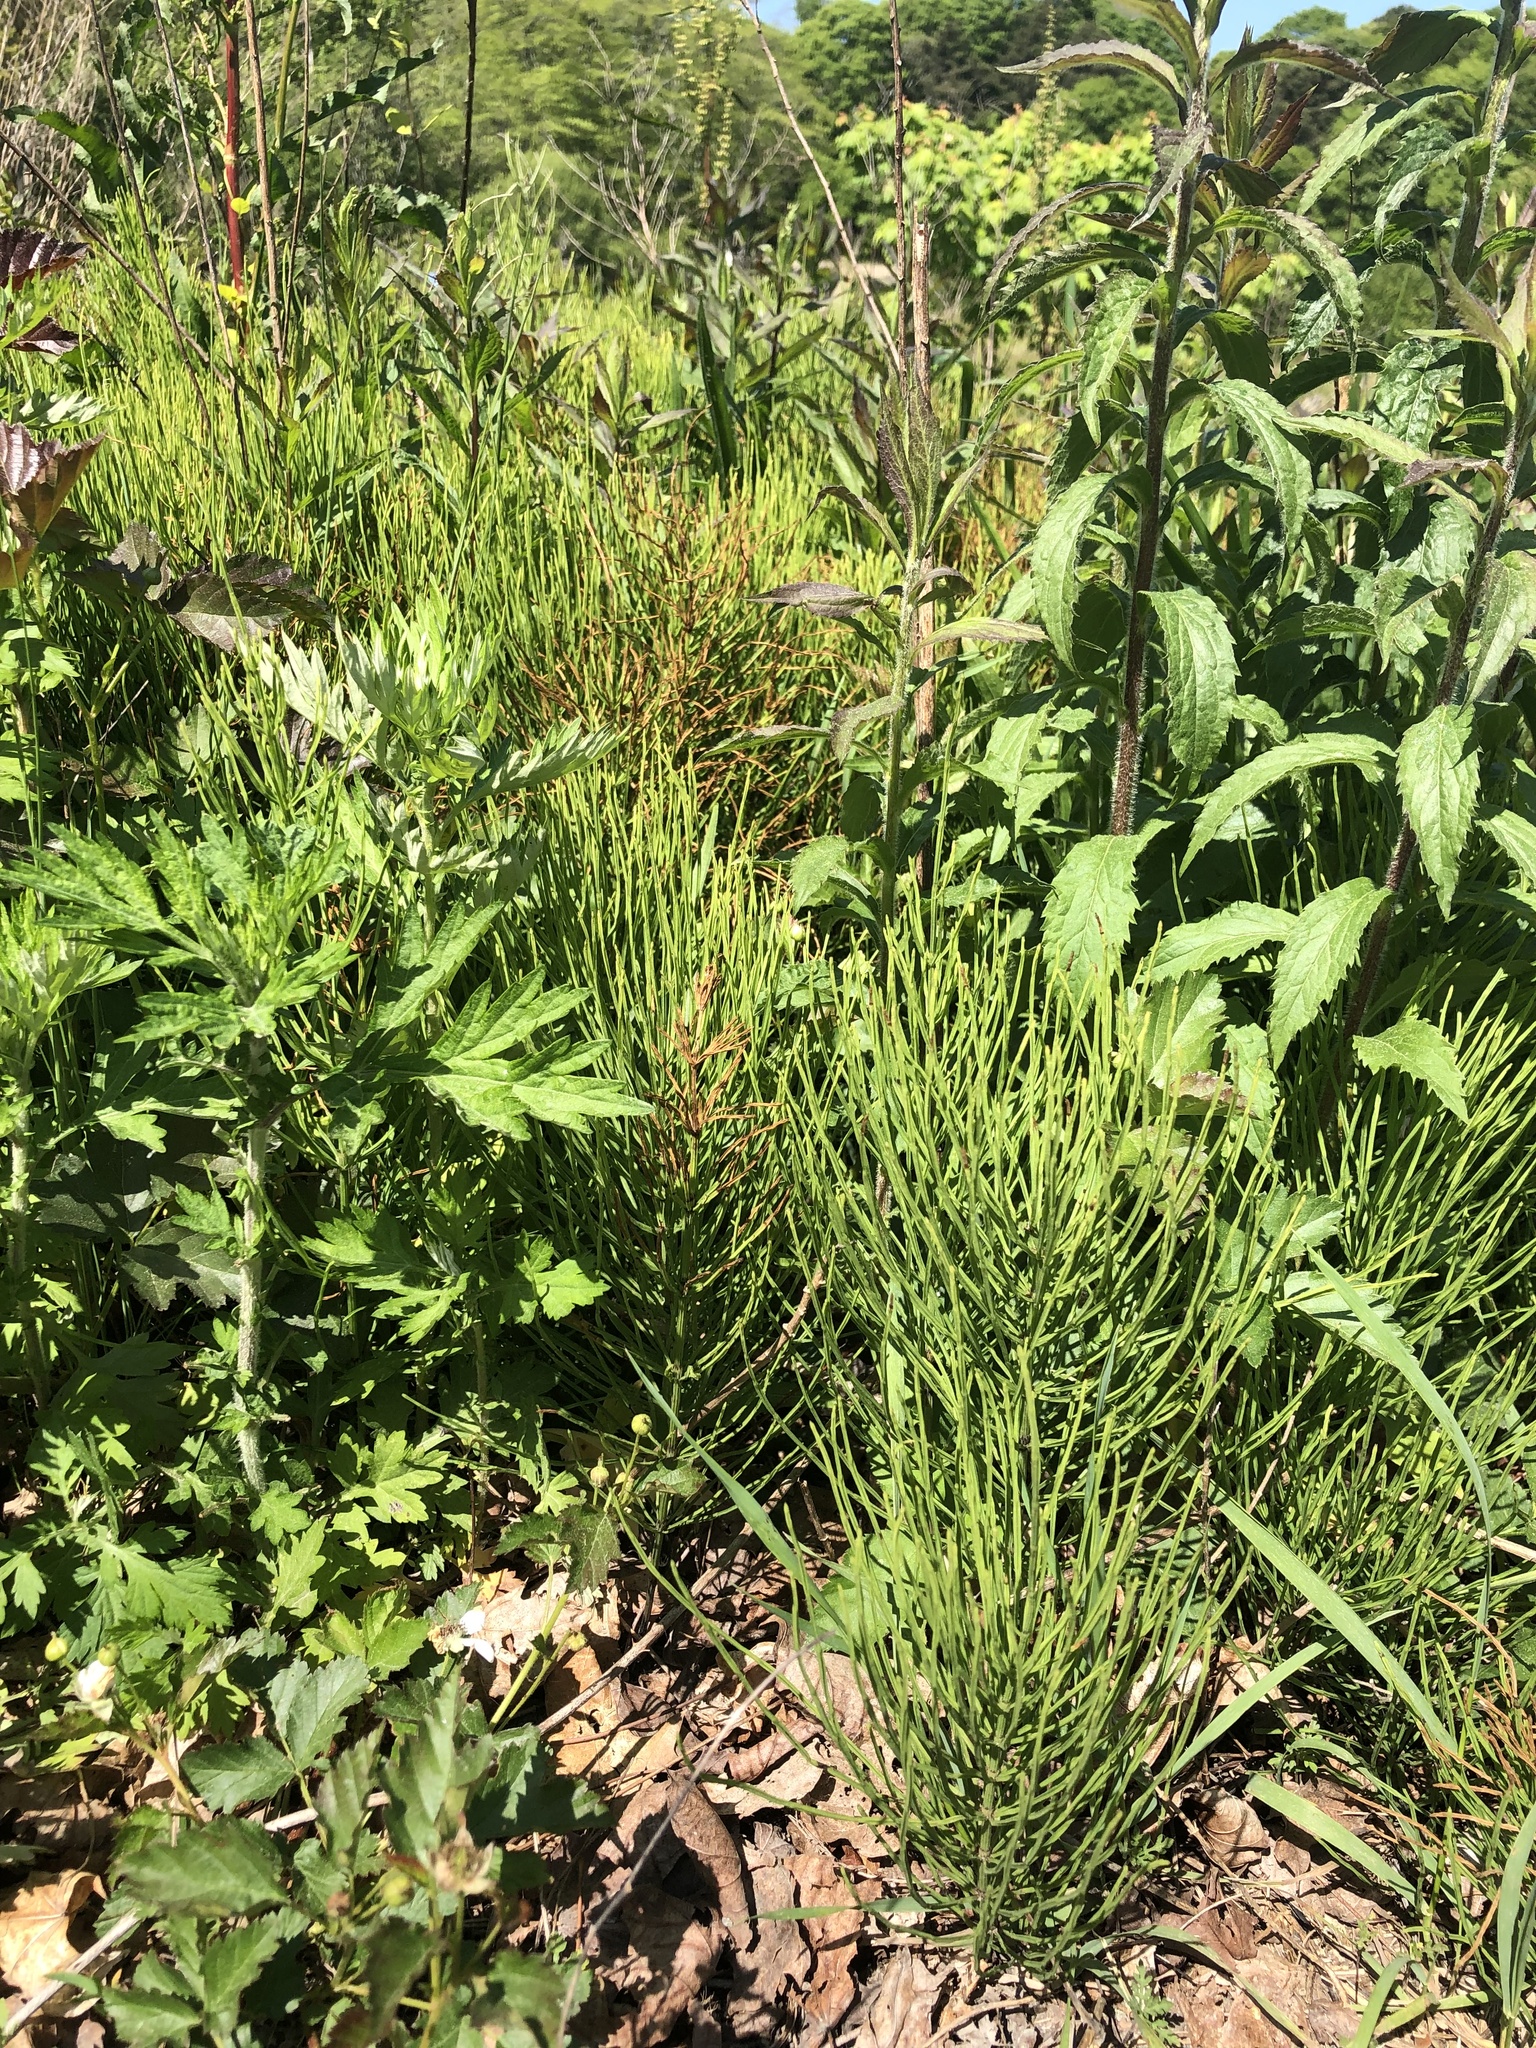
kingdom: Plantae
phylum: Tracheophyta
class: Polypodiopsida
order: Equisetales
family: Equisetaceae
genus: Equisetum
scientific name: Equisetum arvense
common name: Field horsetail
